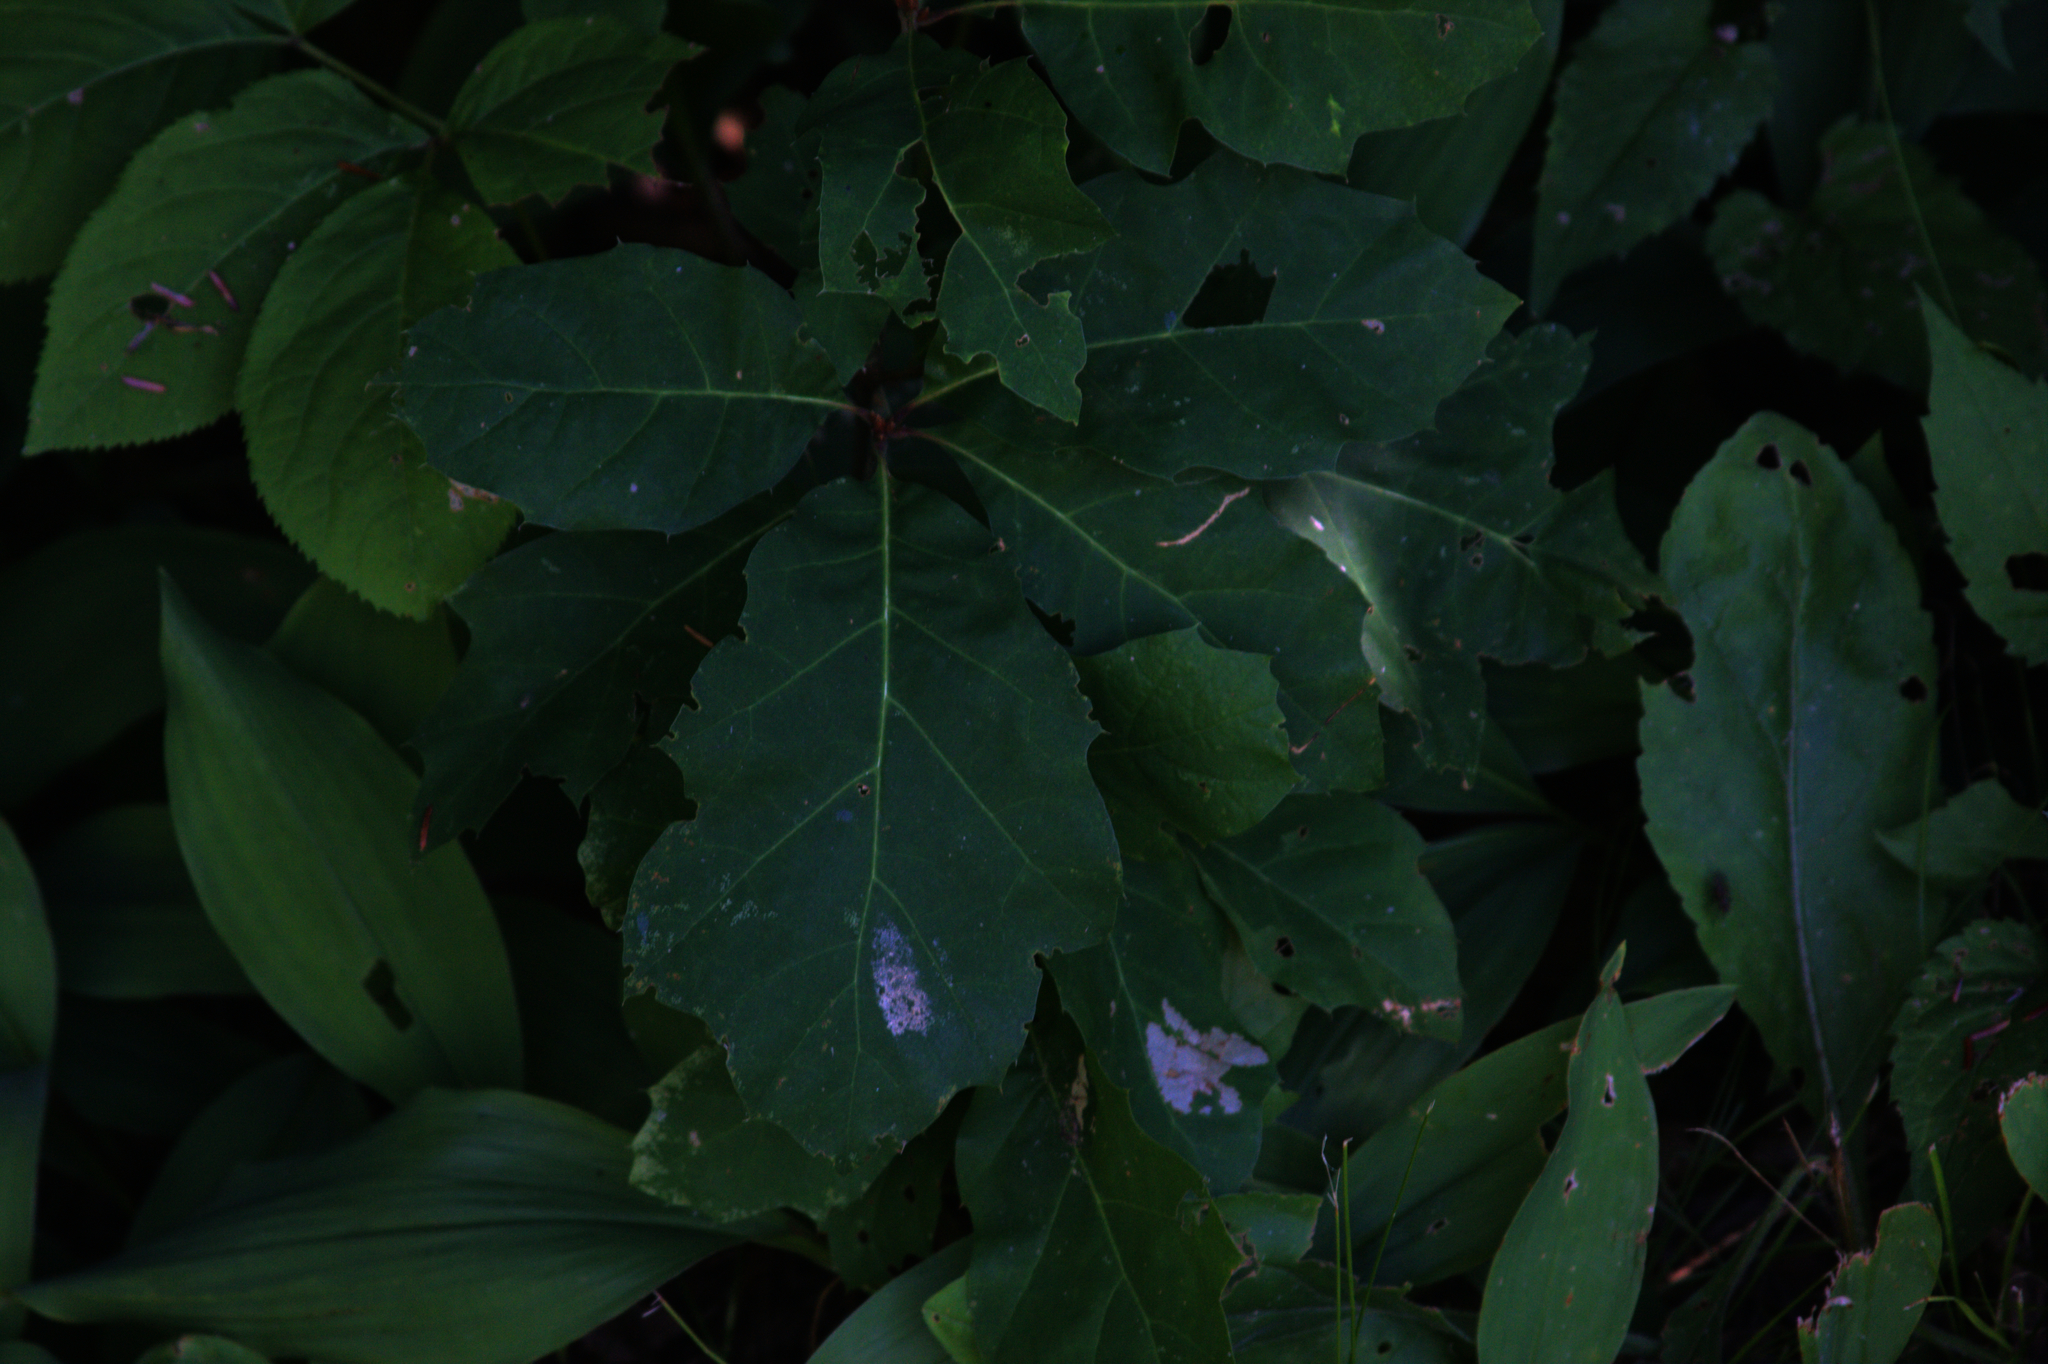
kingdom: Plantae
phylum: Tracheophyta
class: Magnoliopsida
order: Fagales
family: Fagaceae
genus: Quercus
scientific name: Quercus rubra
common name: Red oak
